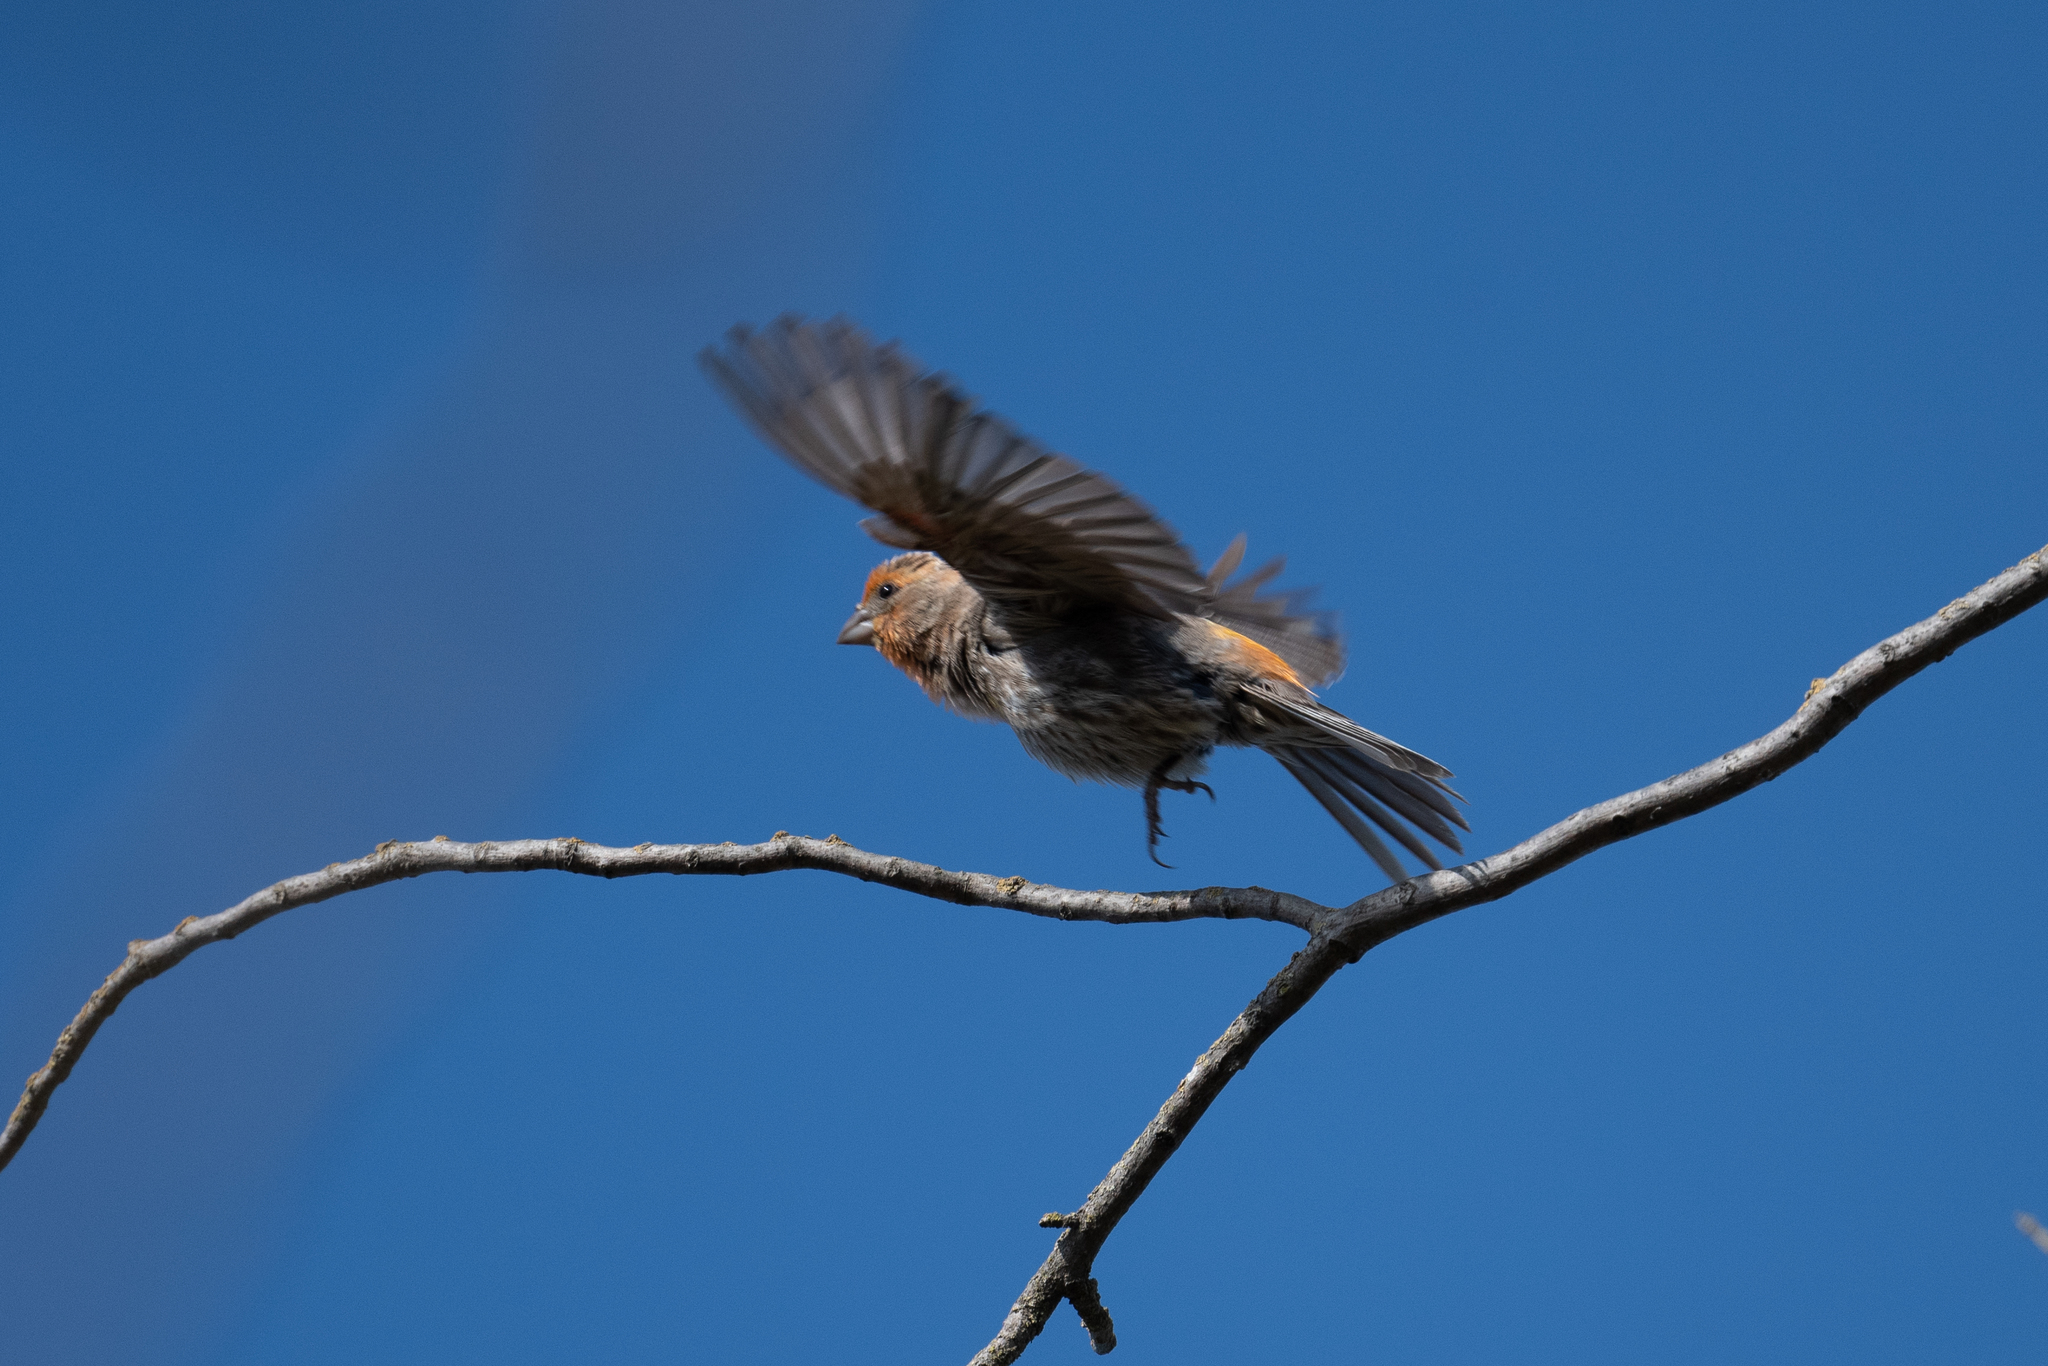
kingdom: Animalia
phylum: Chordata
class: Aves
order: Passeriformes
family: Fringillidae
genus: Haemorhous
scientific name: Haemorhous mexicanus
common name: House finch
